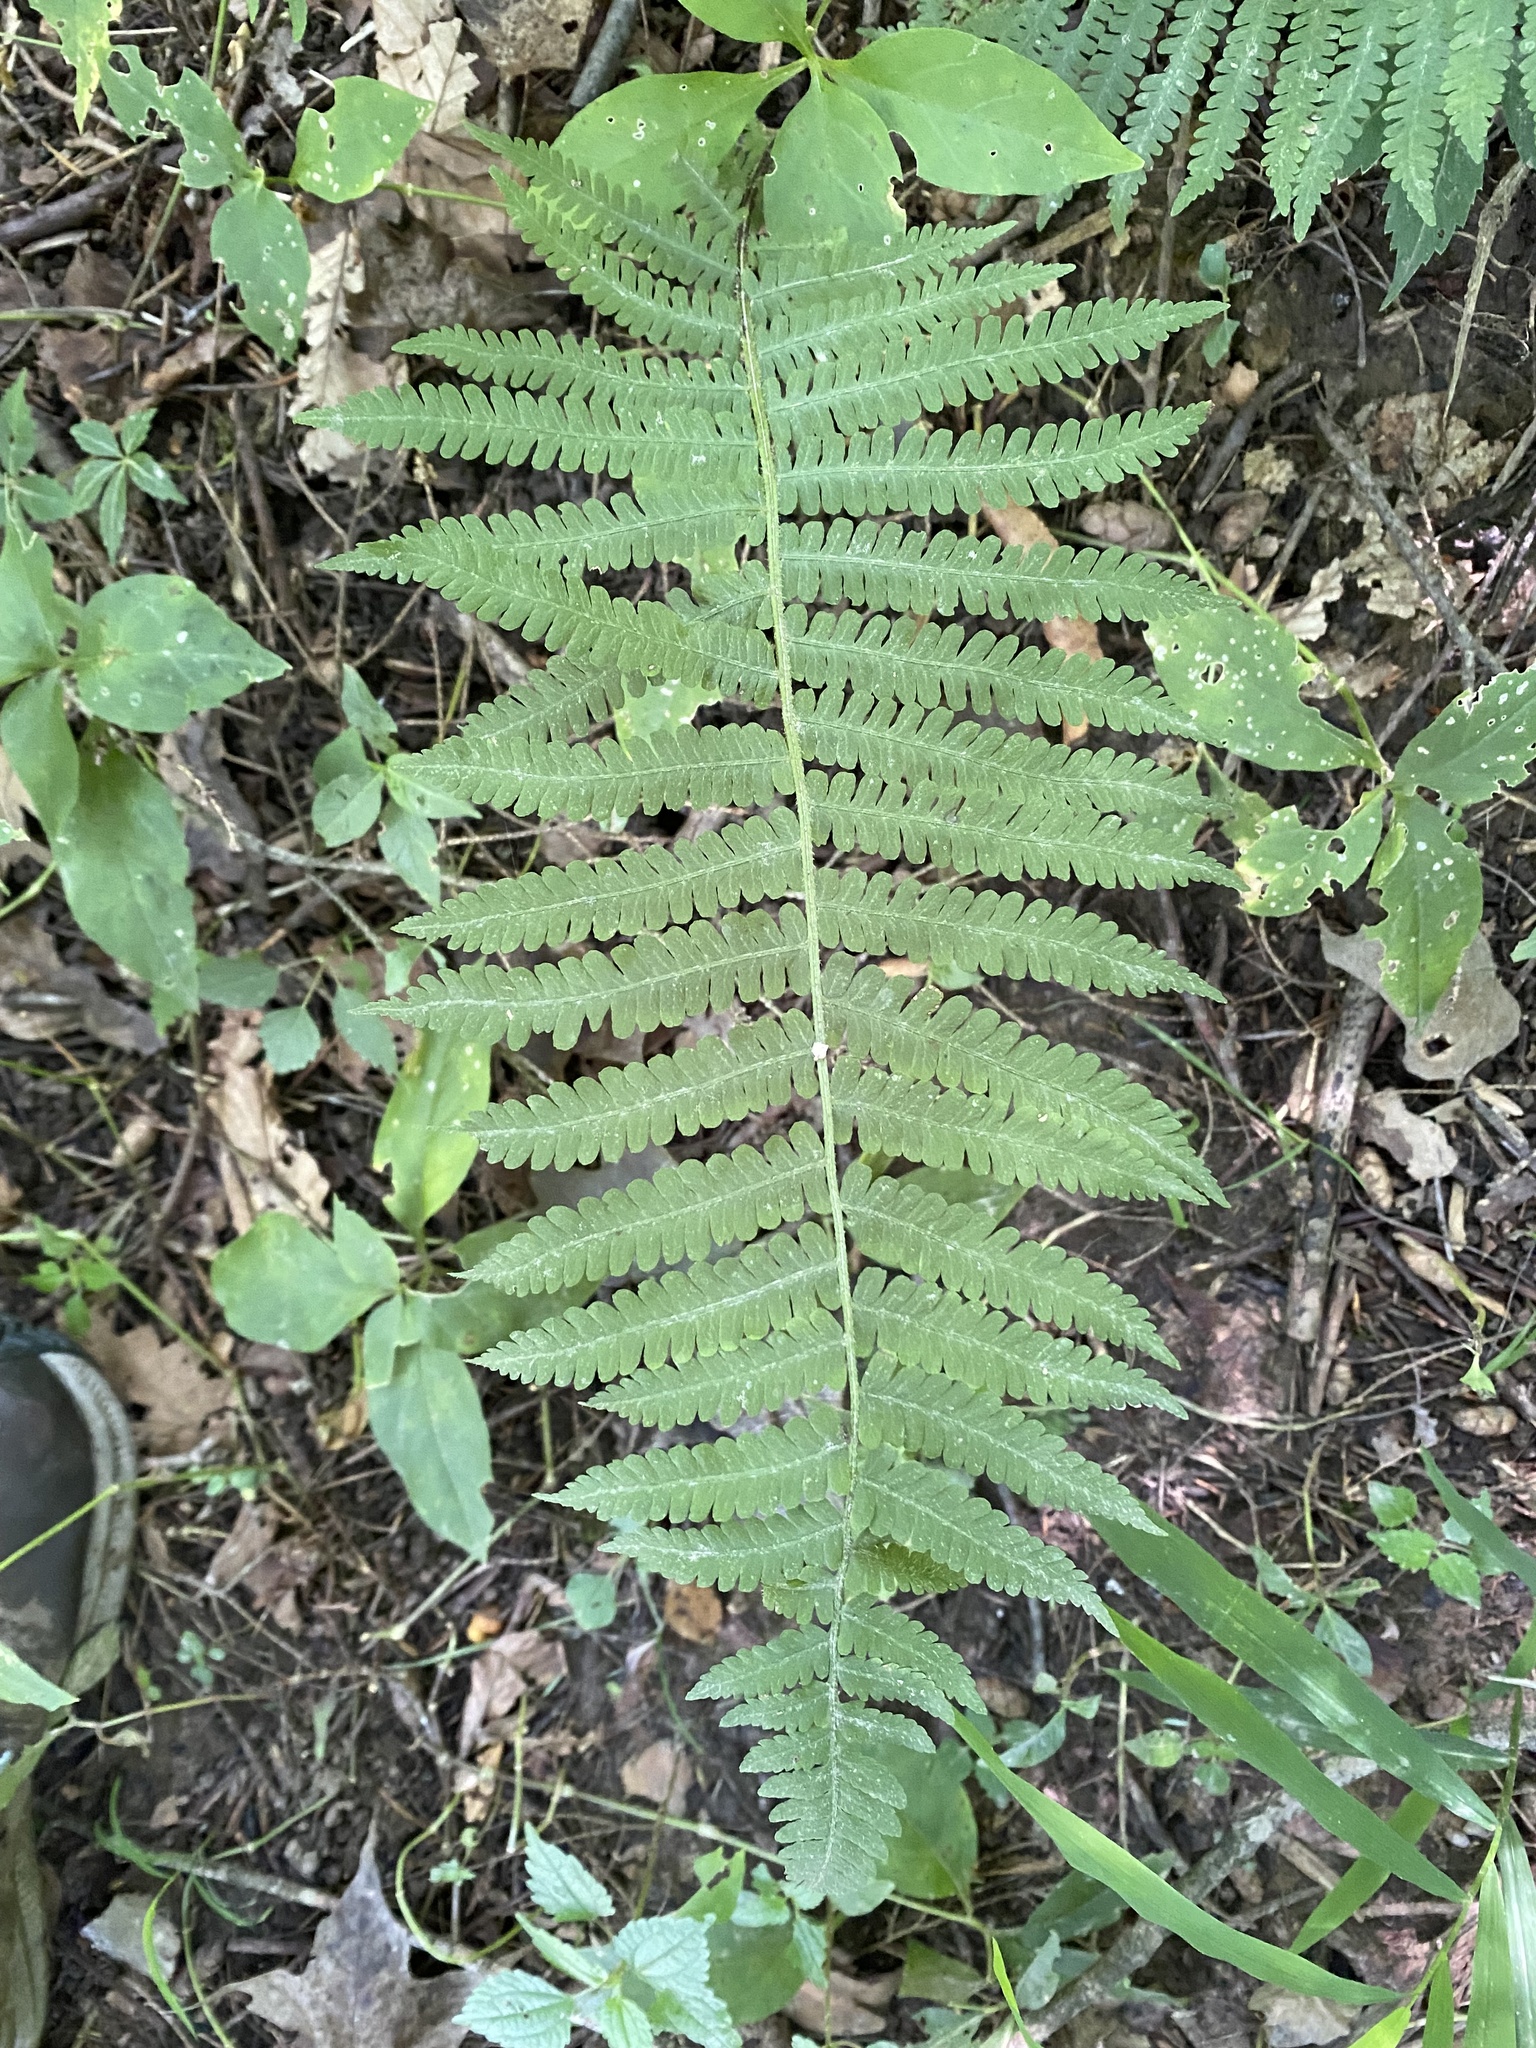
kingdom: Plantae
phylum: Tracheophyta
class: Polypodiopsida
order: Polypodiales
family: Athyriaceae
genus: Deparia
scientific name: Deparia acrostichoides
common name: Silver false spleenwort
